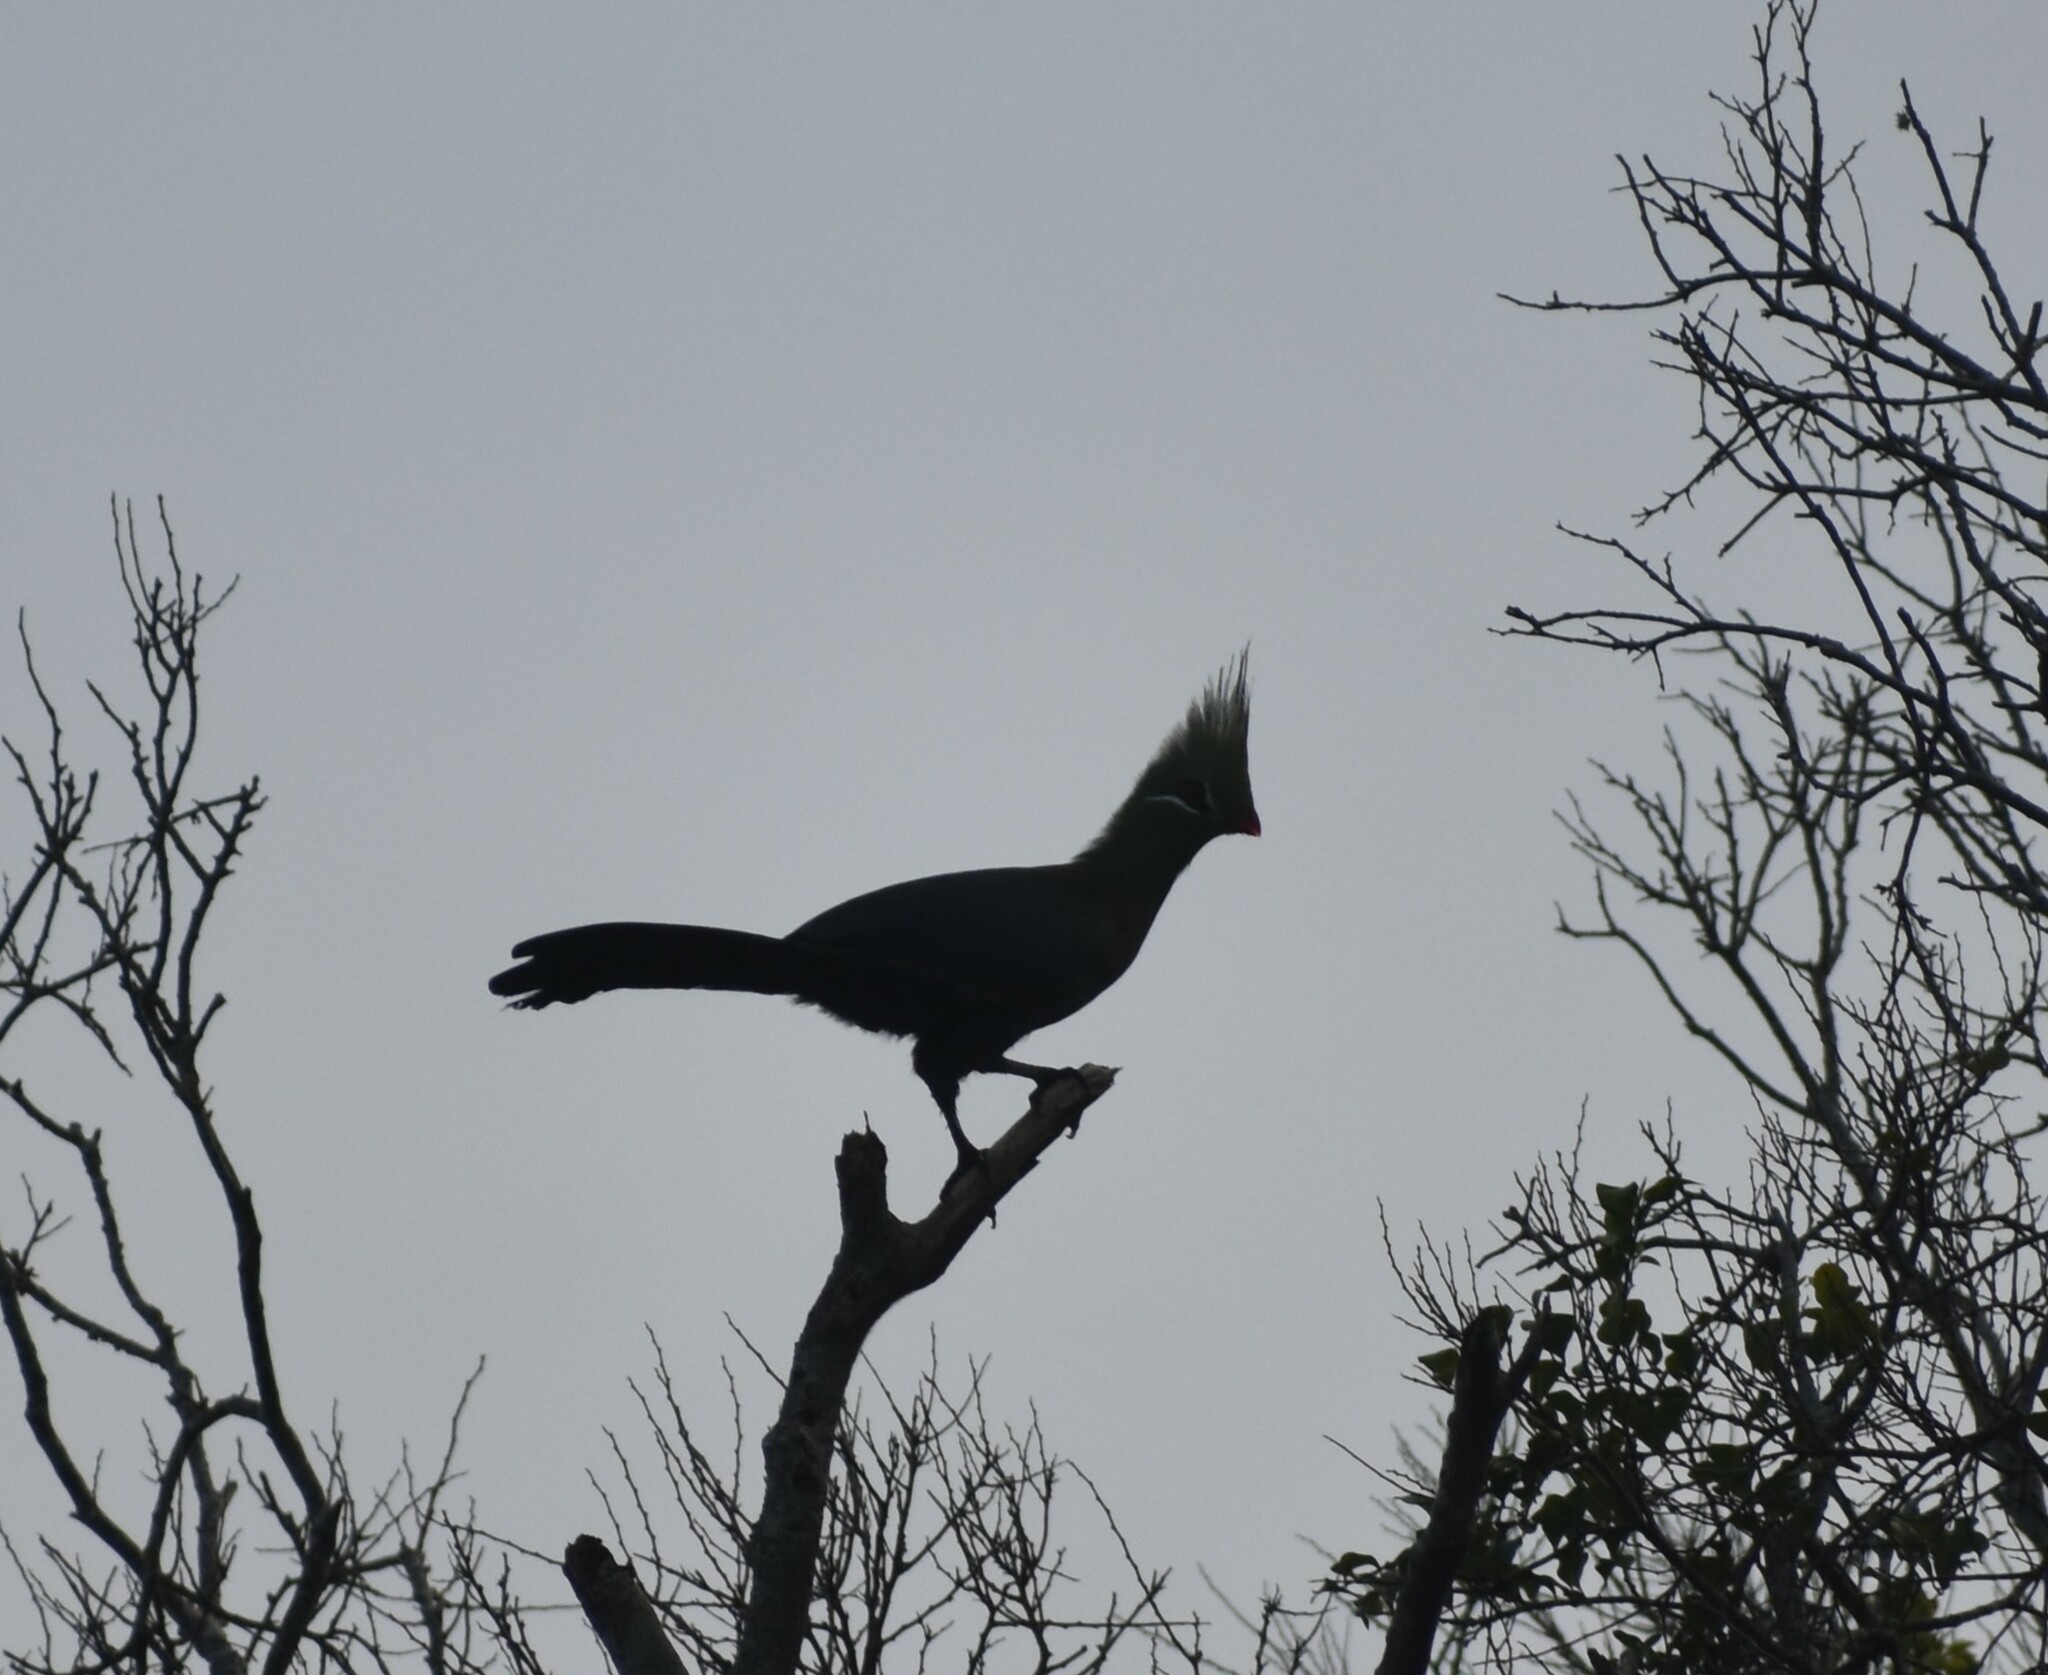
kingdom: Animalia
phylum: Chordata
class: Aves
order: Musophagiformes
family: Musophagidae
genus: Tauraco
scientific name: Tauraco livingstonii
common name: Livingstone's turaco
